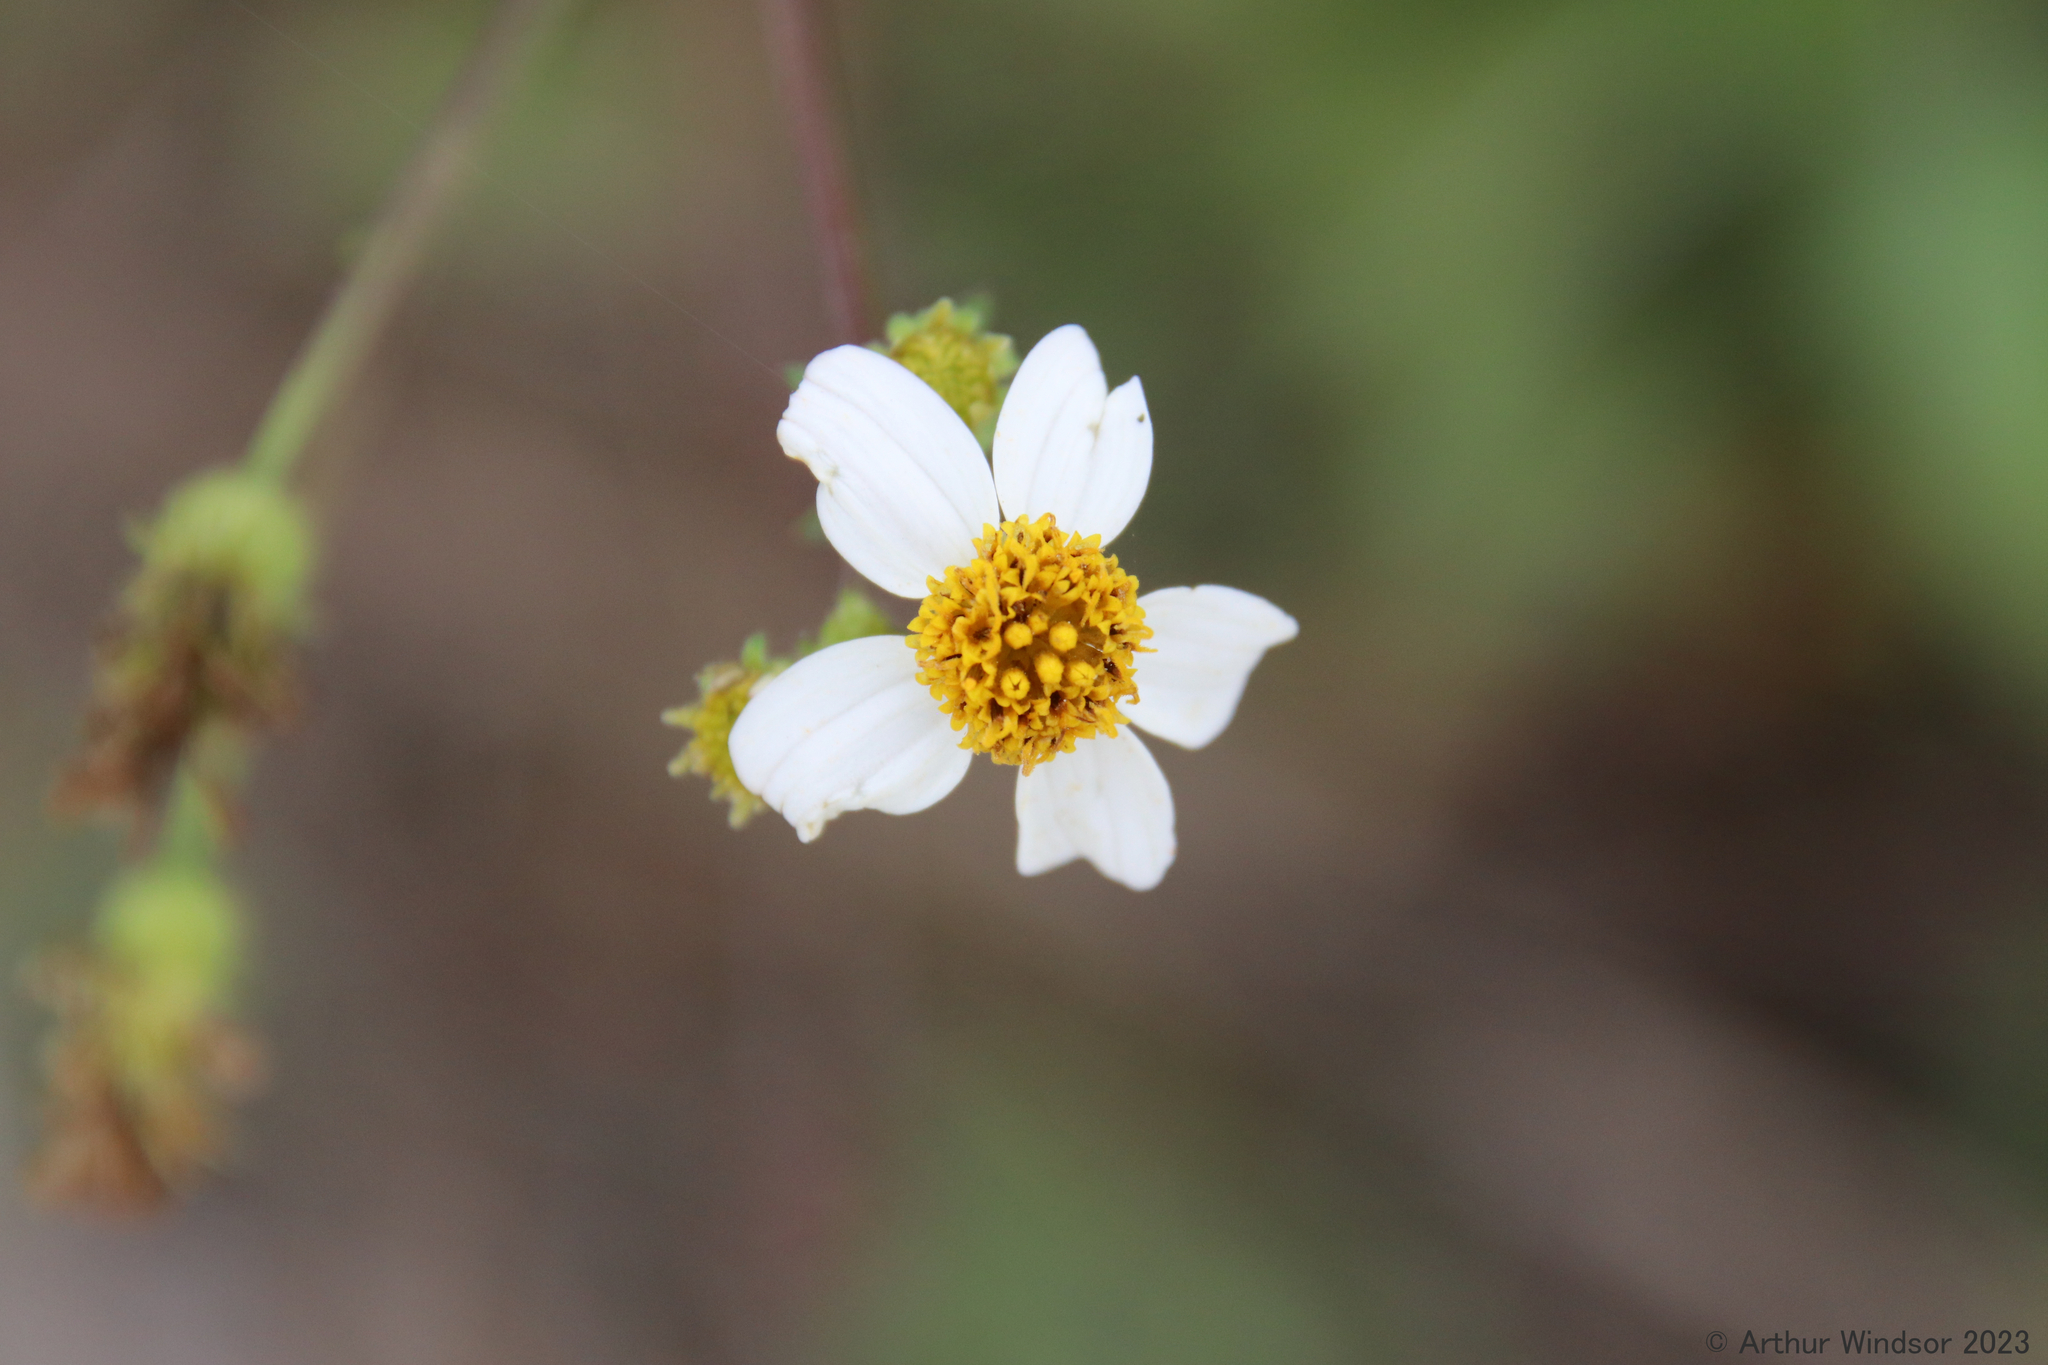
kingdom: Plantae
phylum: Tracheophyta
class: Magnoliopsida
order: Asterales
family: Asteraceae
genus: Bidens
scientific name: Bidens alba
